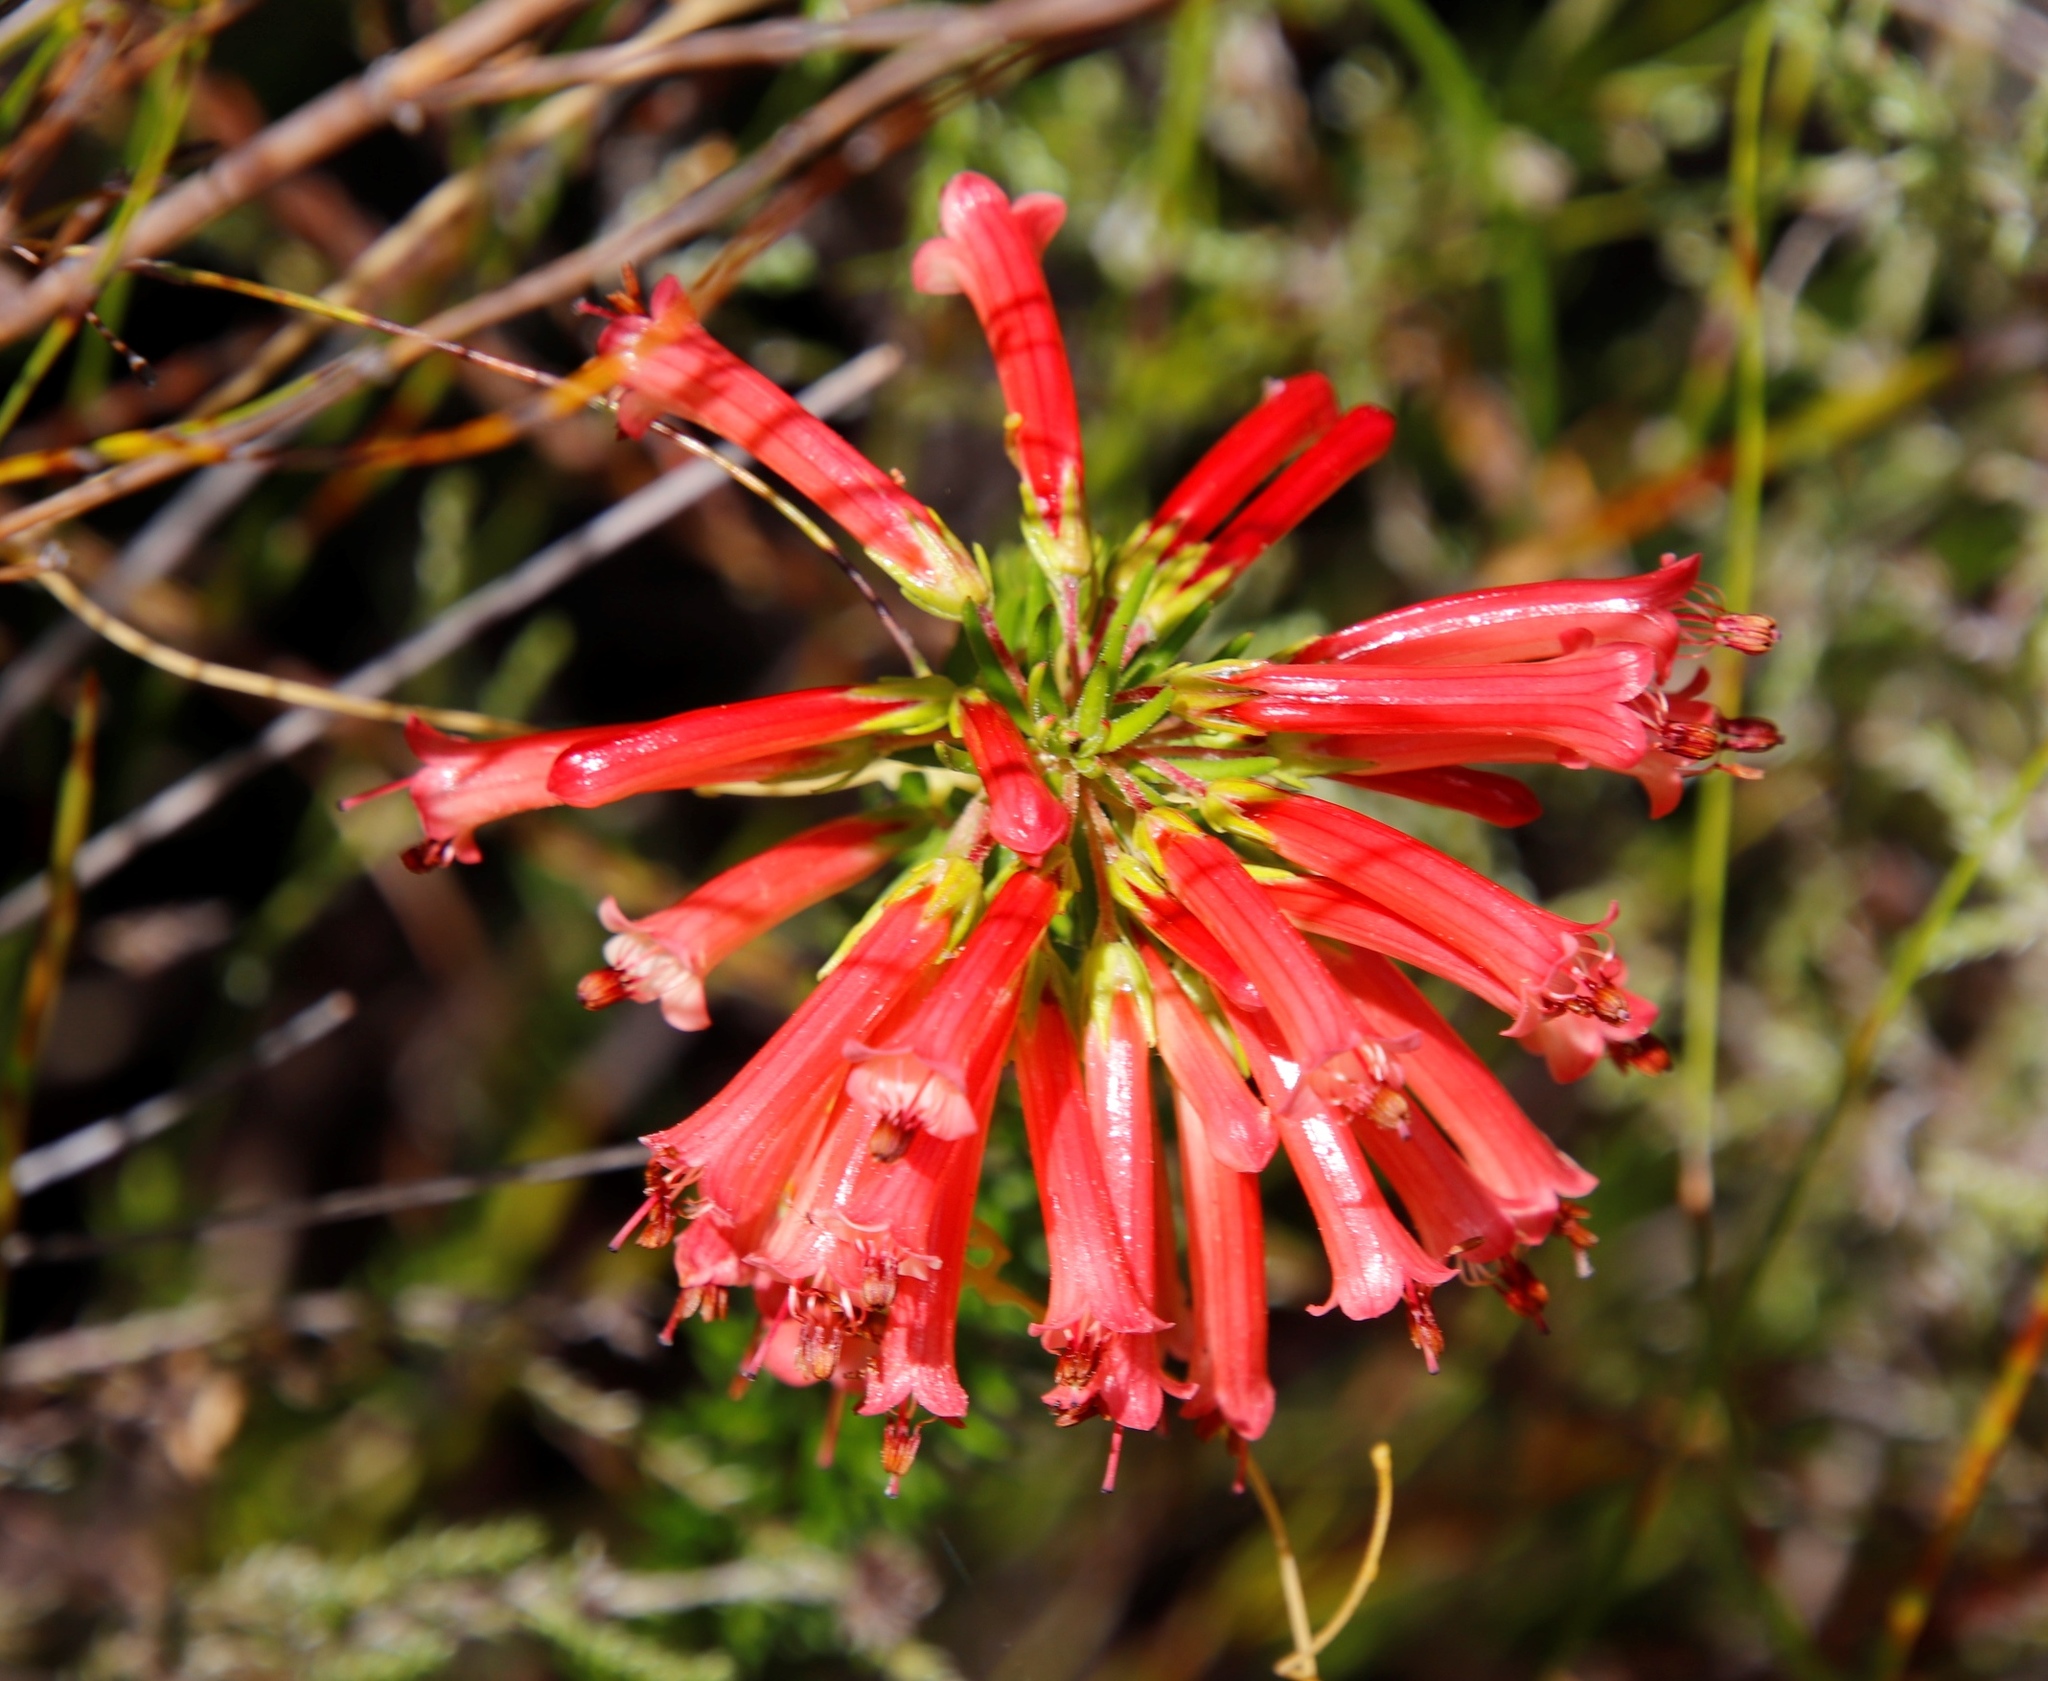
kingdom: Plantae
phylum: Tracheophyta
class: Magnoliopsida
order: Ericales
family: Ericaceae
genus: Erica
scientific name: Erica nevillei
